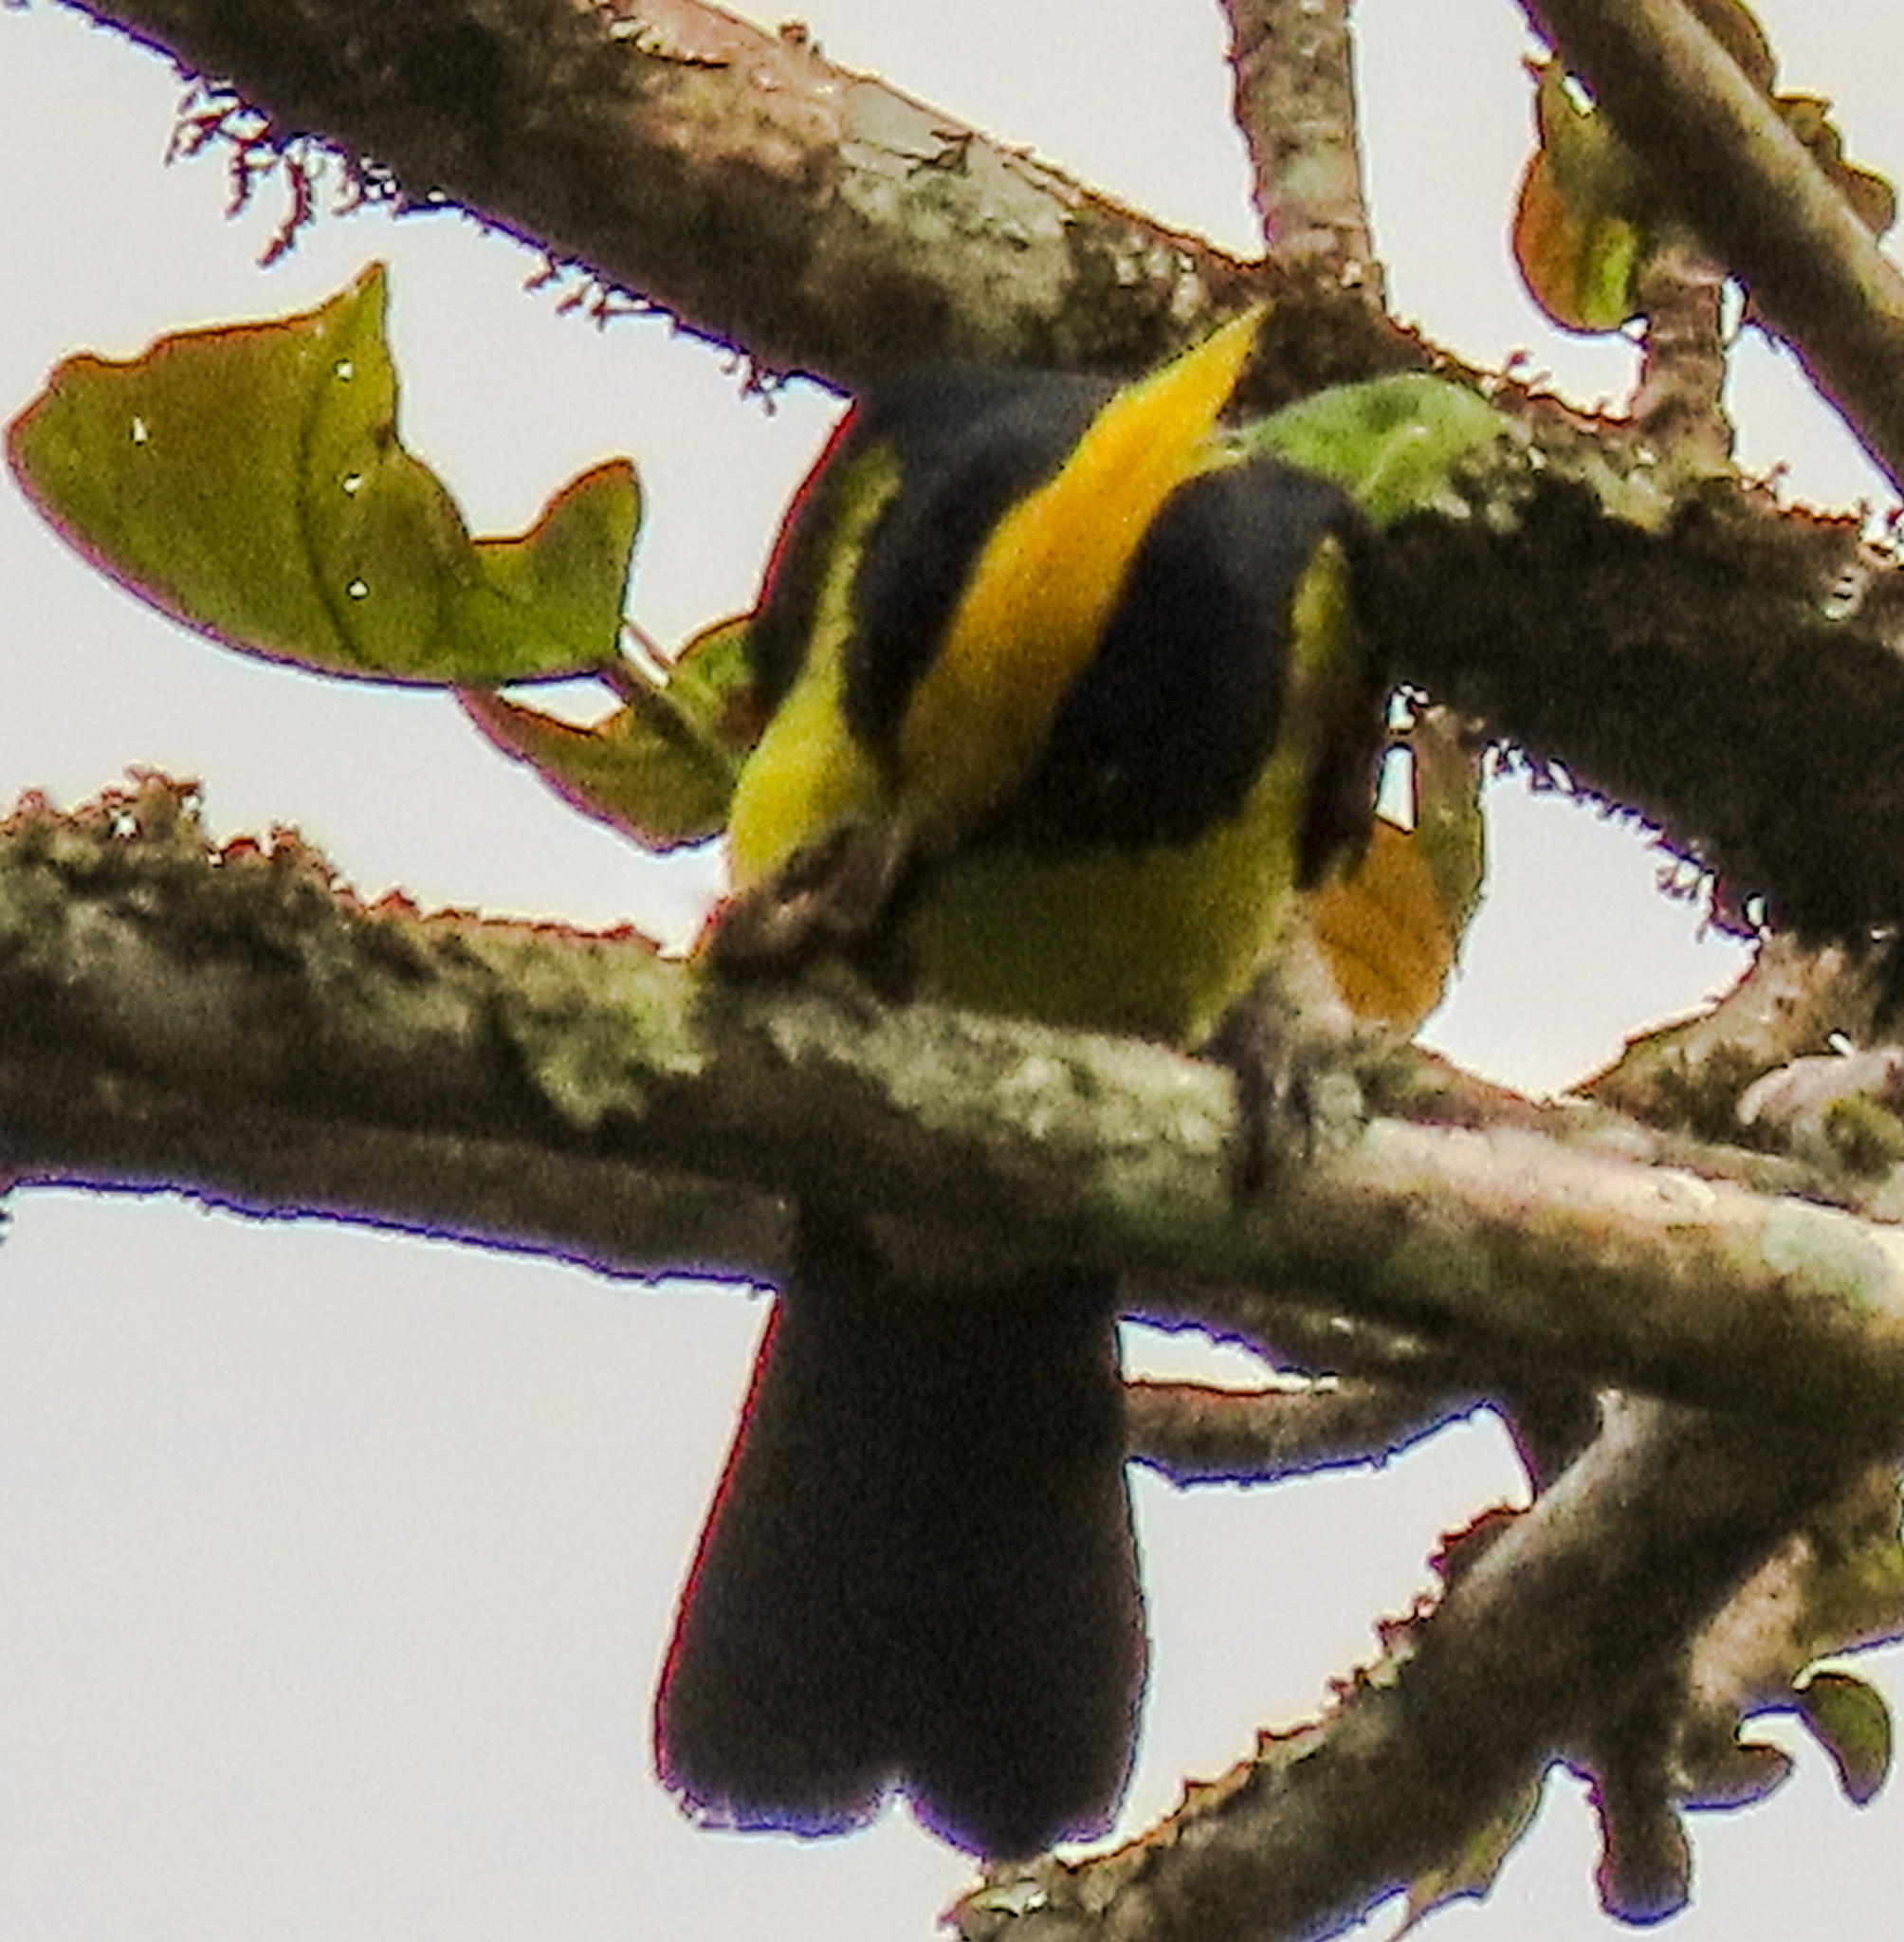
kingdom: Animalia
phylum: Chordata
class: Aves
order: Passeriformes
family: Paridae
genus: Melanochlora
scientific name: Melanochlora sultanea
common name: Sultan tit
